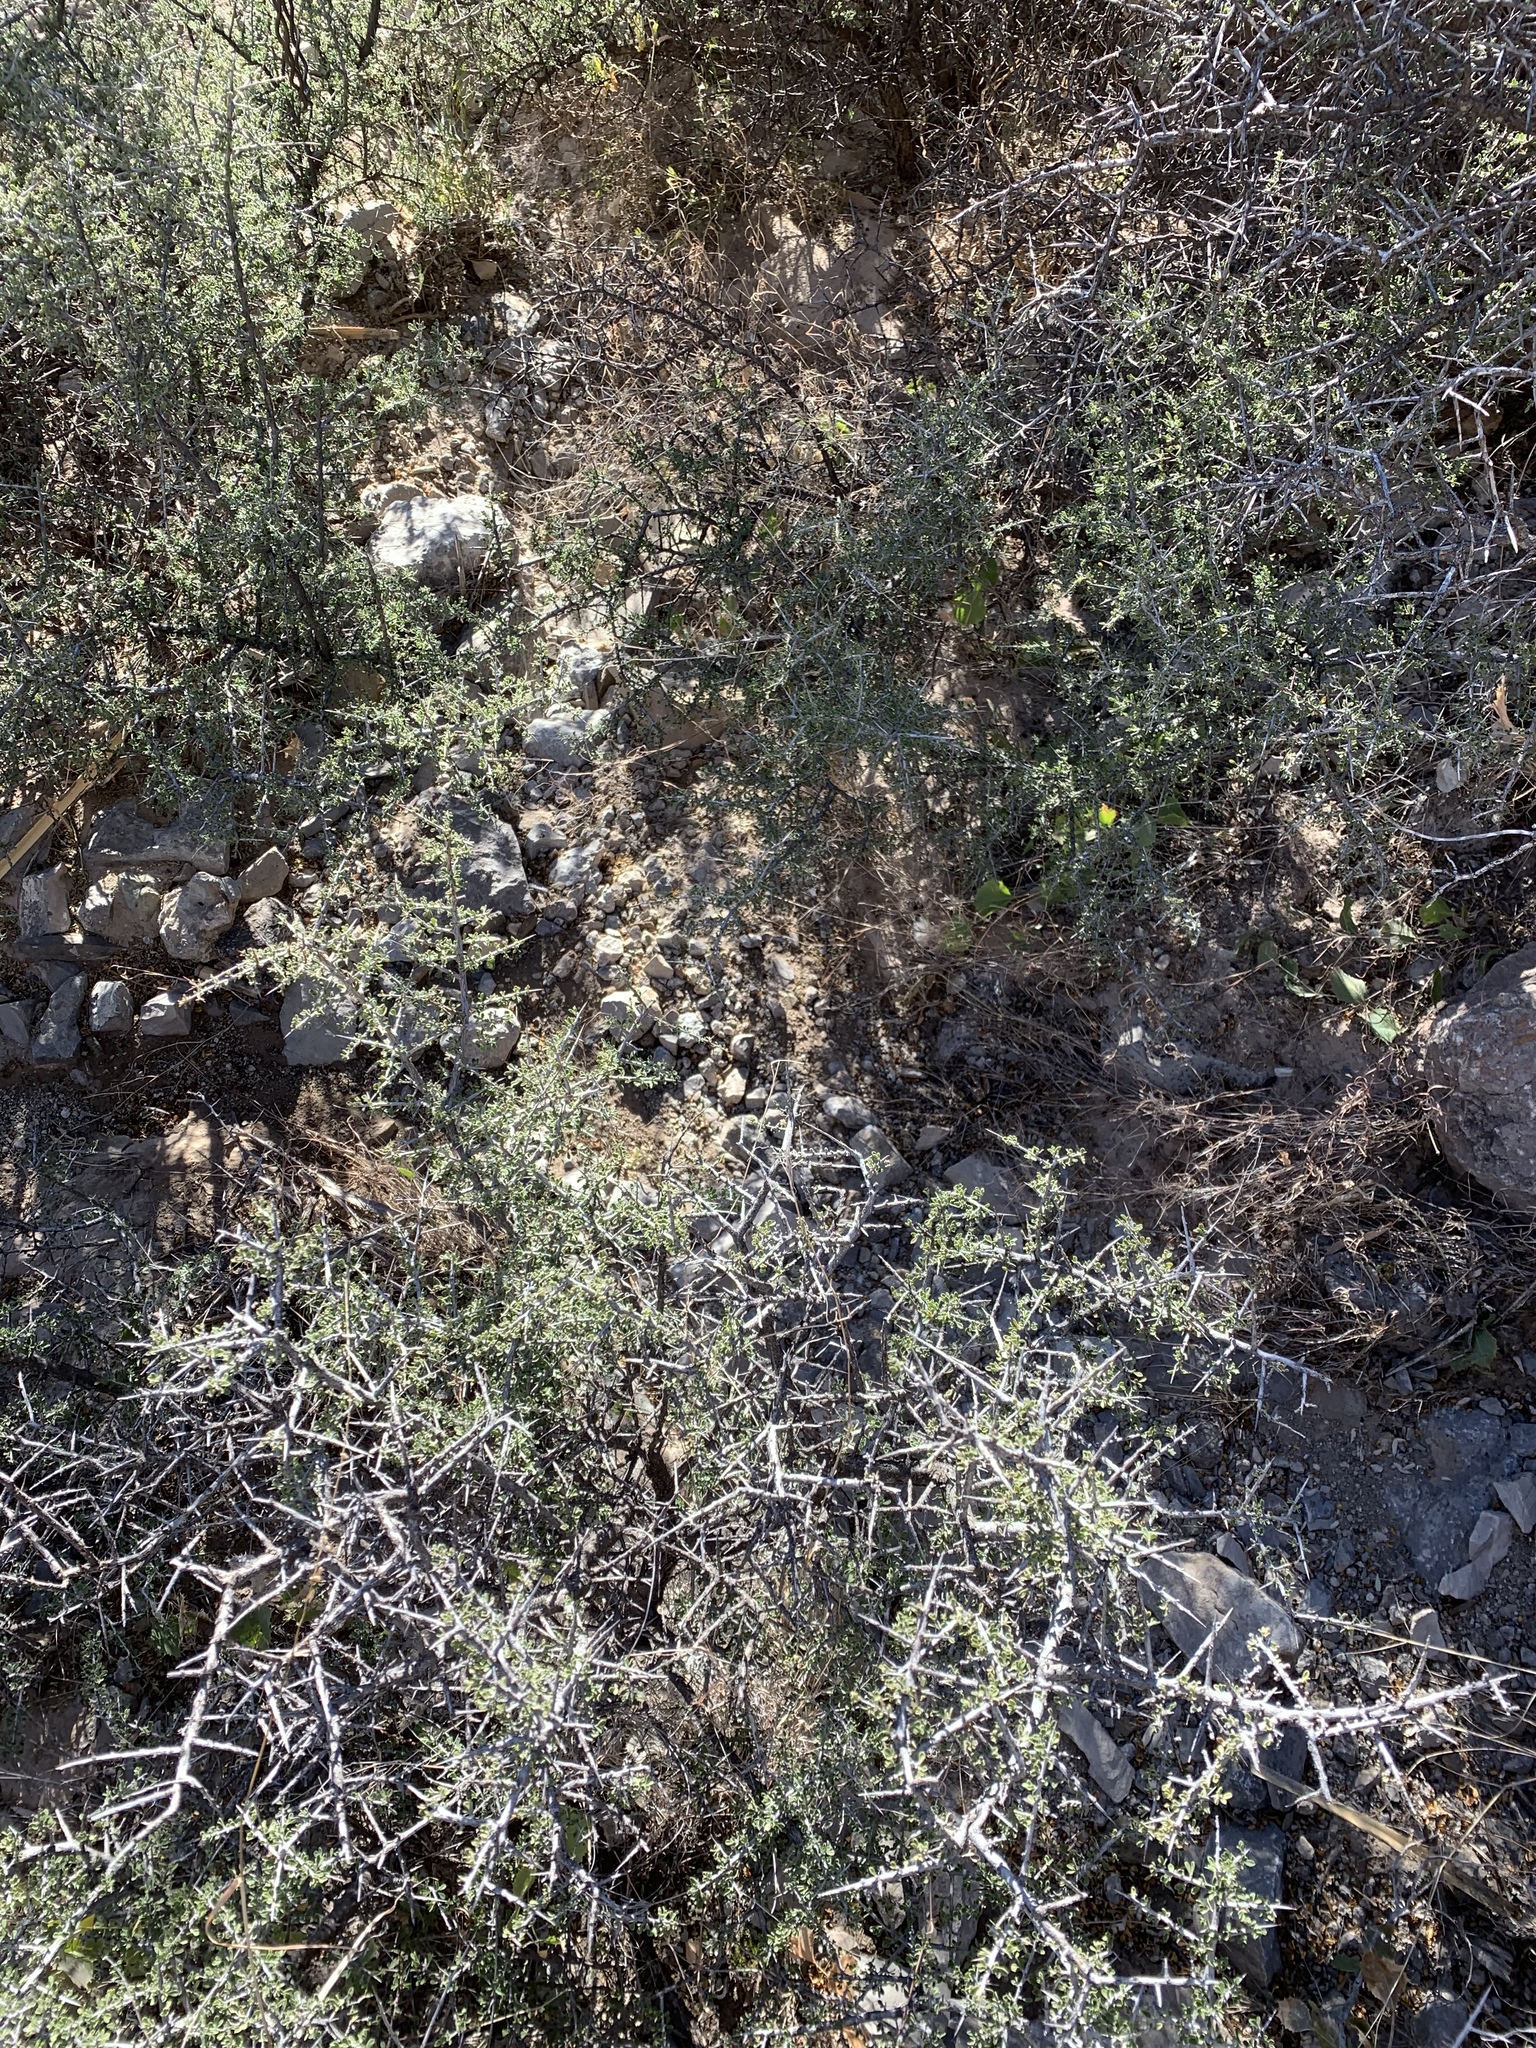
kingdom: Plantae
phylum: Tracheophyta
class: Magnoliopsida
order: Rosales
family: Rhamnaceae
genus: Condalia
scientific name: Condalia warnockii
